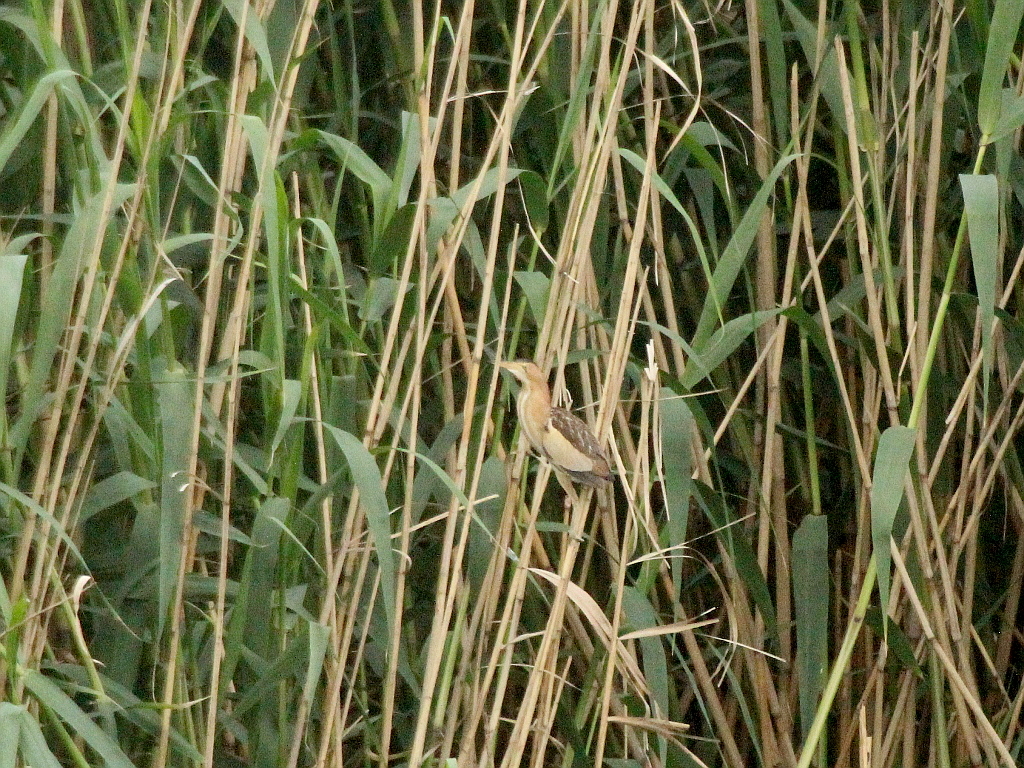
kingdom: Animalia
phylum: Chordata
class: Aves
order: Pelecaniformes
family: Ardeidae
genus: Ixobrychus
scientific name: Ixobrychus minutus
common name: Little bittern
